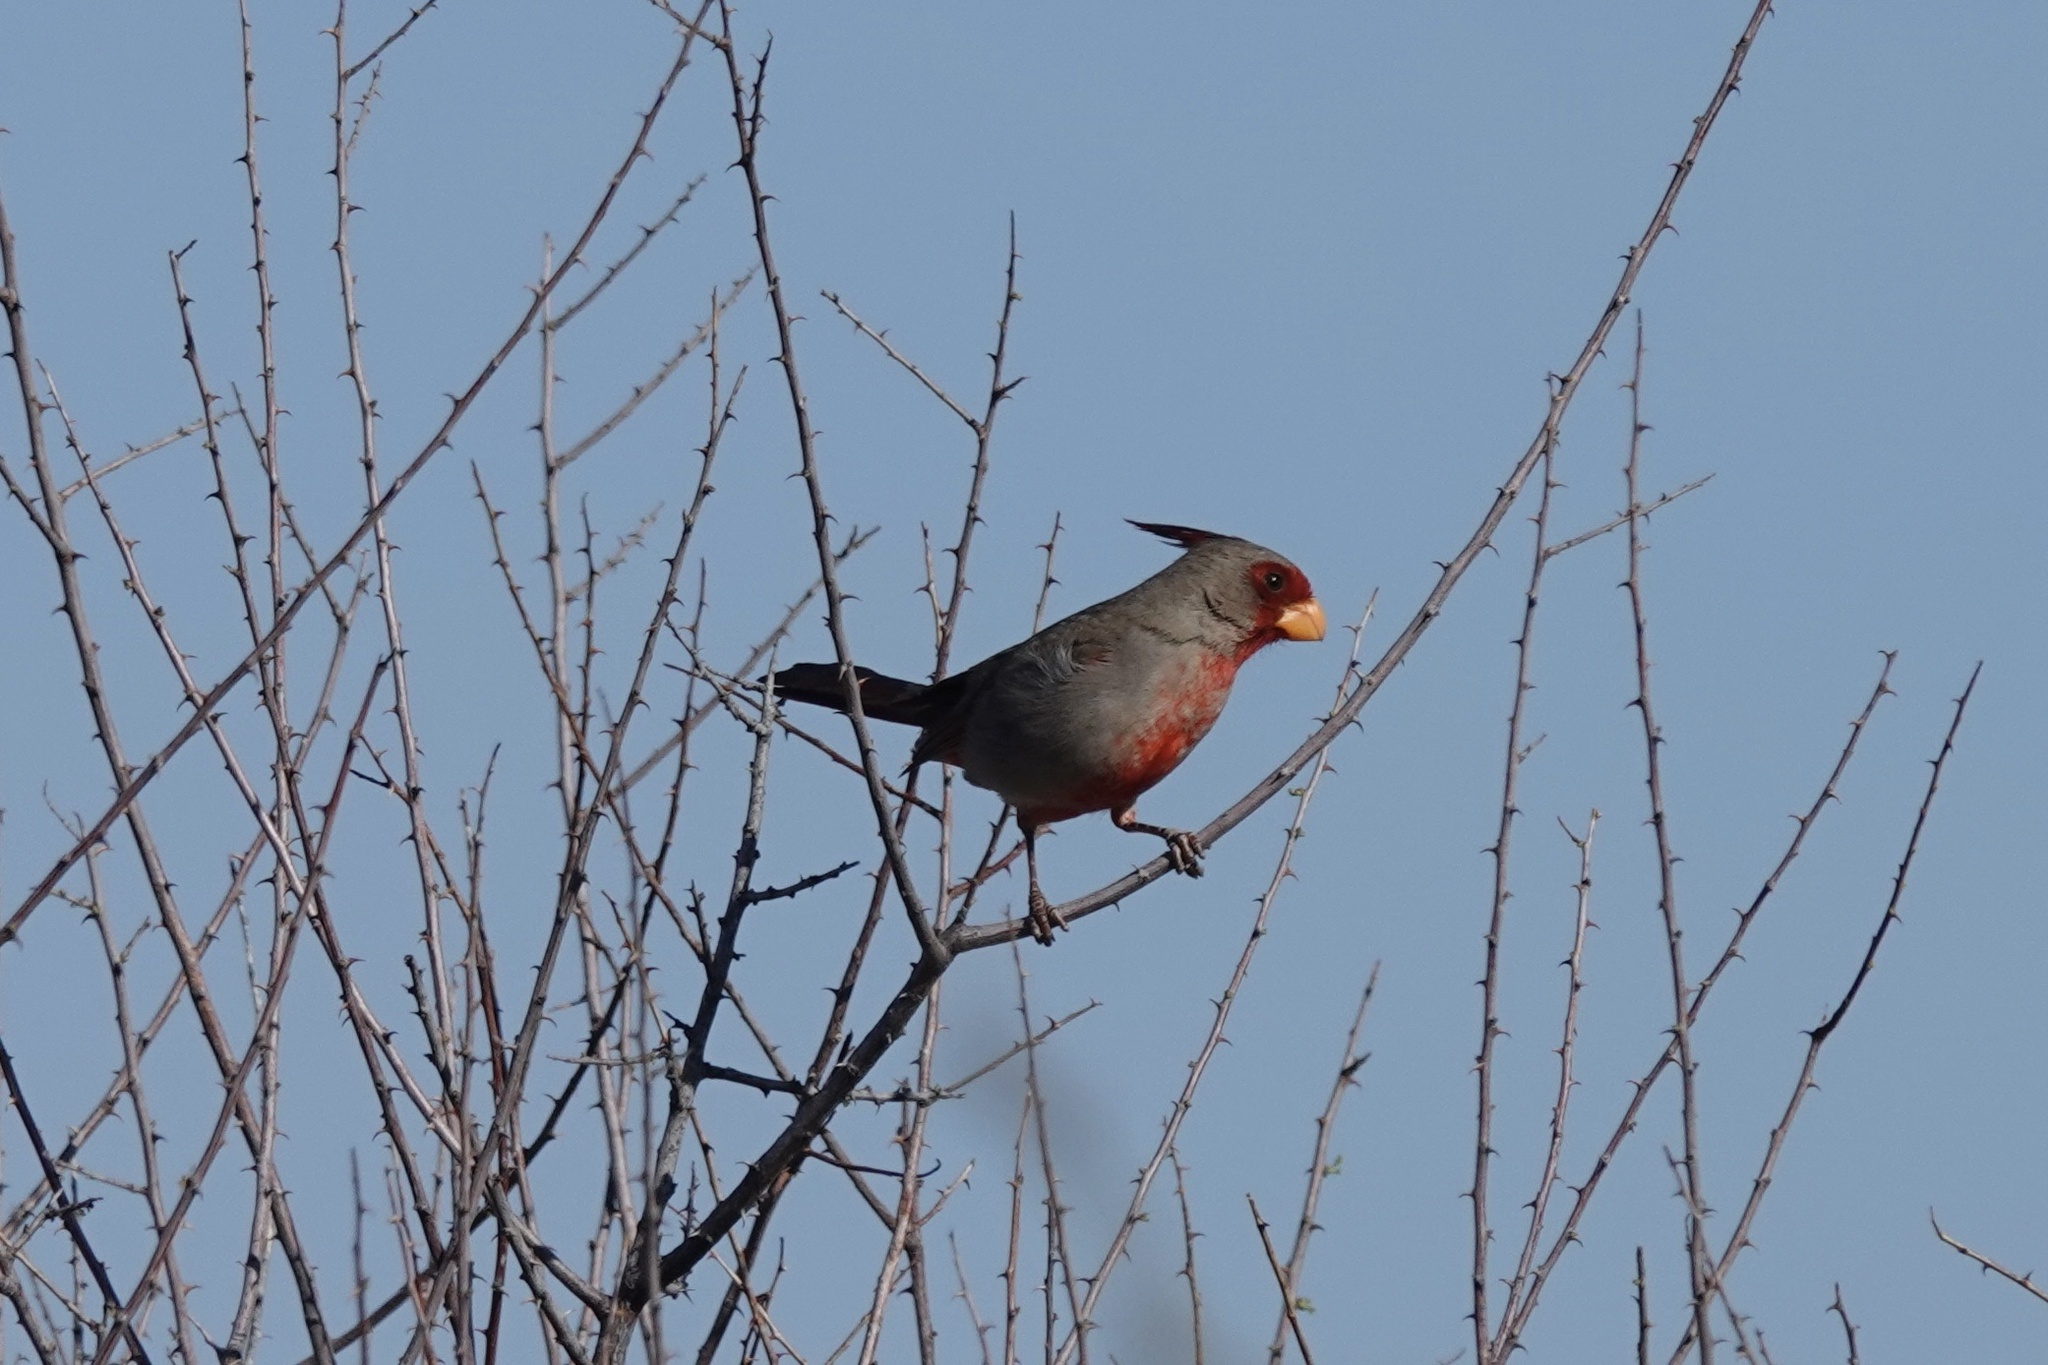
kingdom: Animalia
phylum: Chordata
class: Aves
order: Passeriformes
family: Cardinalidae
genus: Cardinalis
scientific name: Cardinalis sinuatus
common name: Pyrrhuloxia
